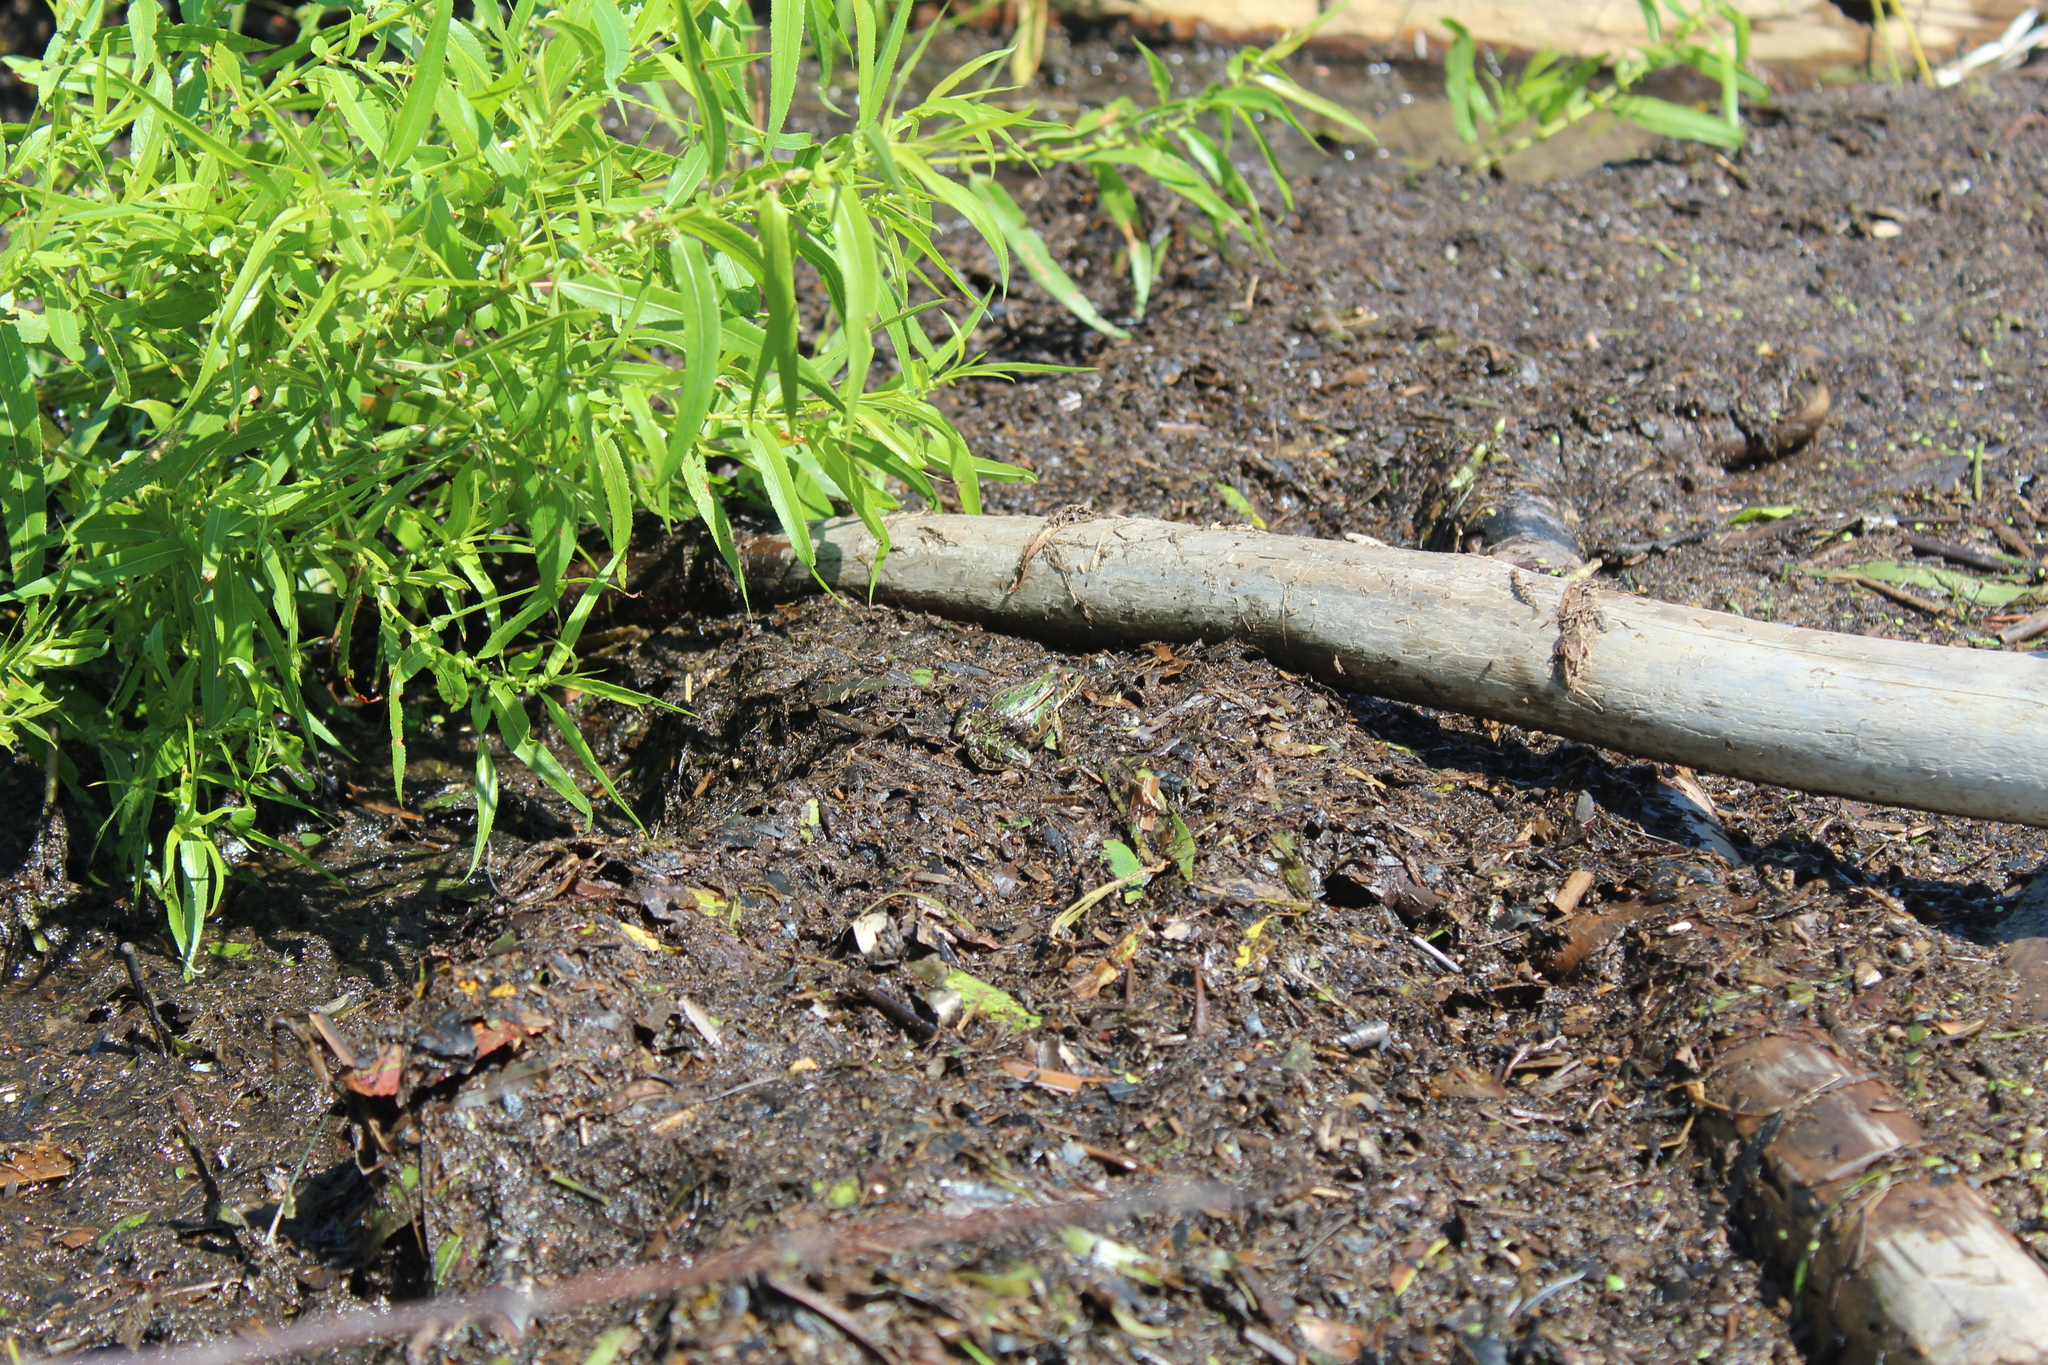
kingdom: Animalia
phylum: Chordata
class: Amphibia
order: Anura
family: Ranidae
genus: Lithobates
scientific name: Lithobates pipiens
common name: Northern leopard frog
